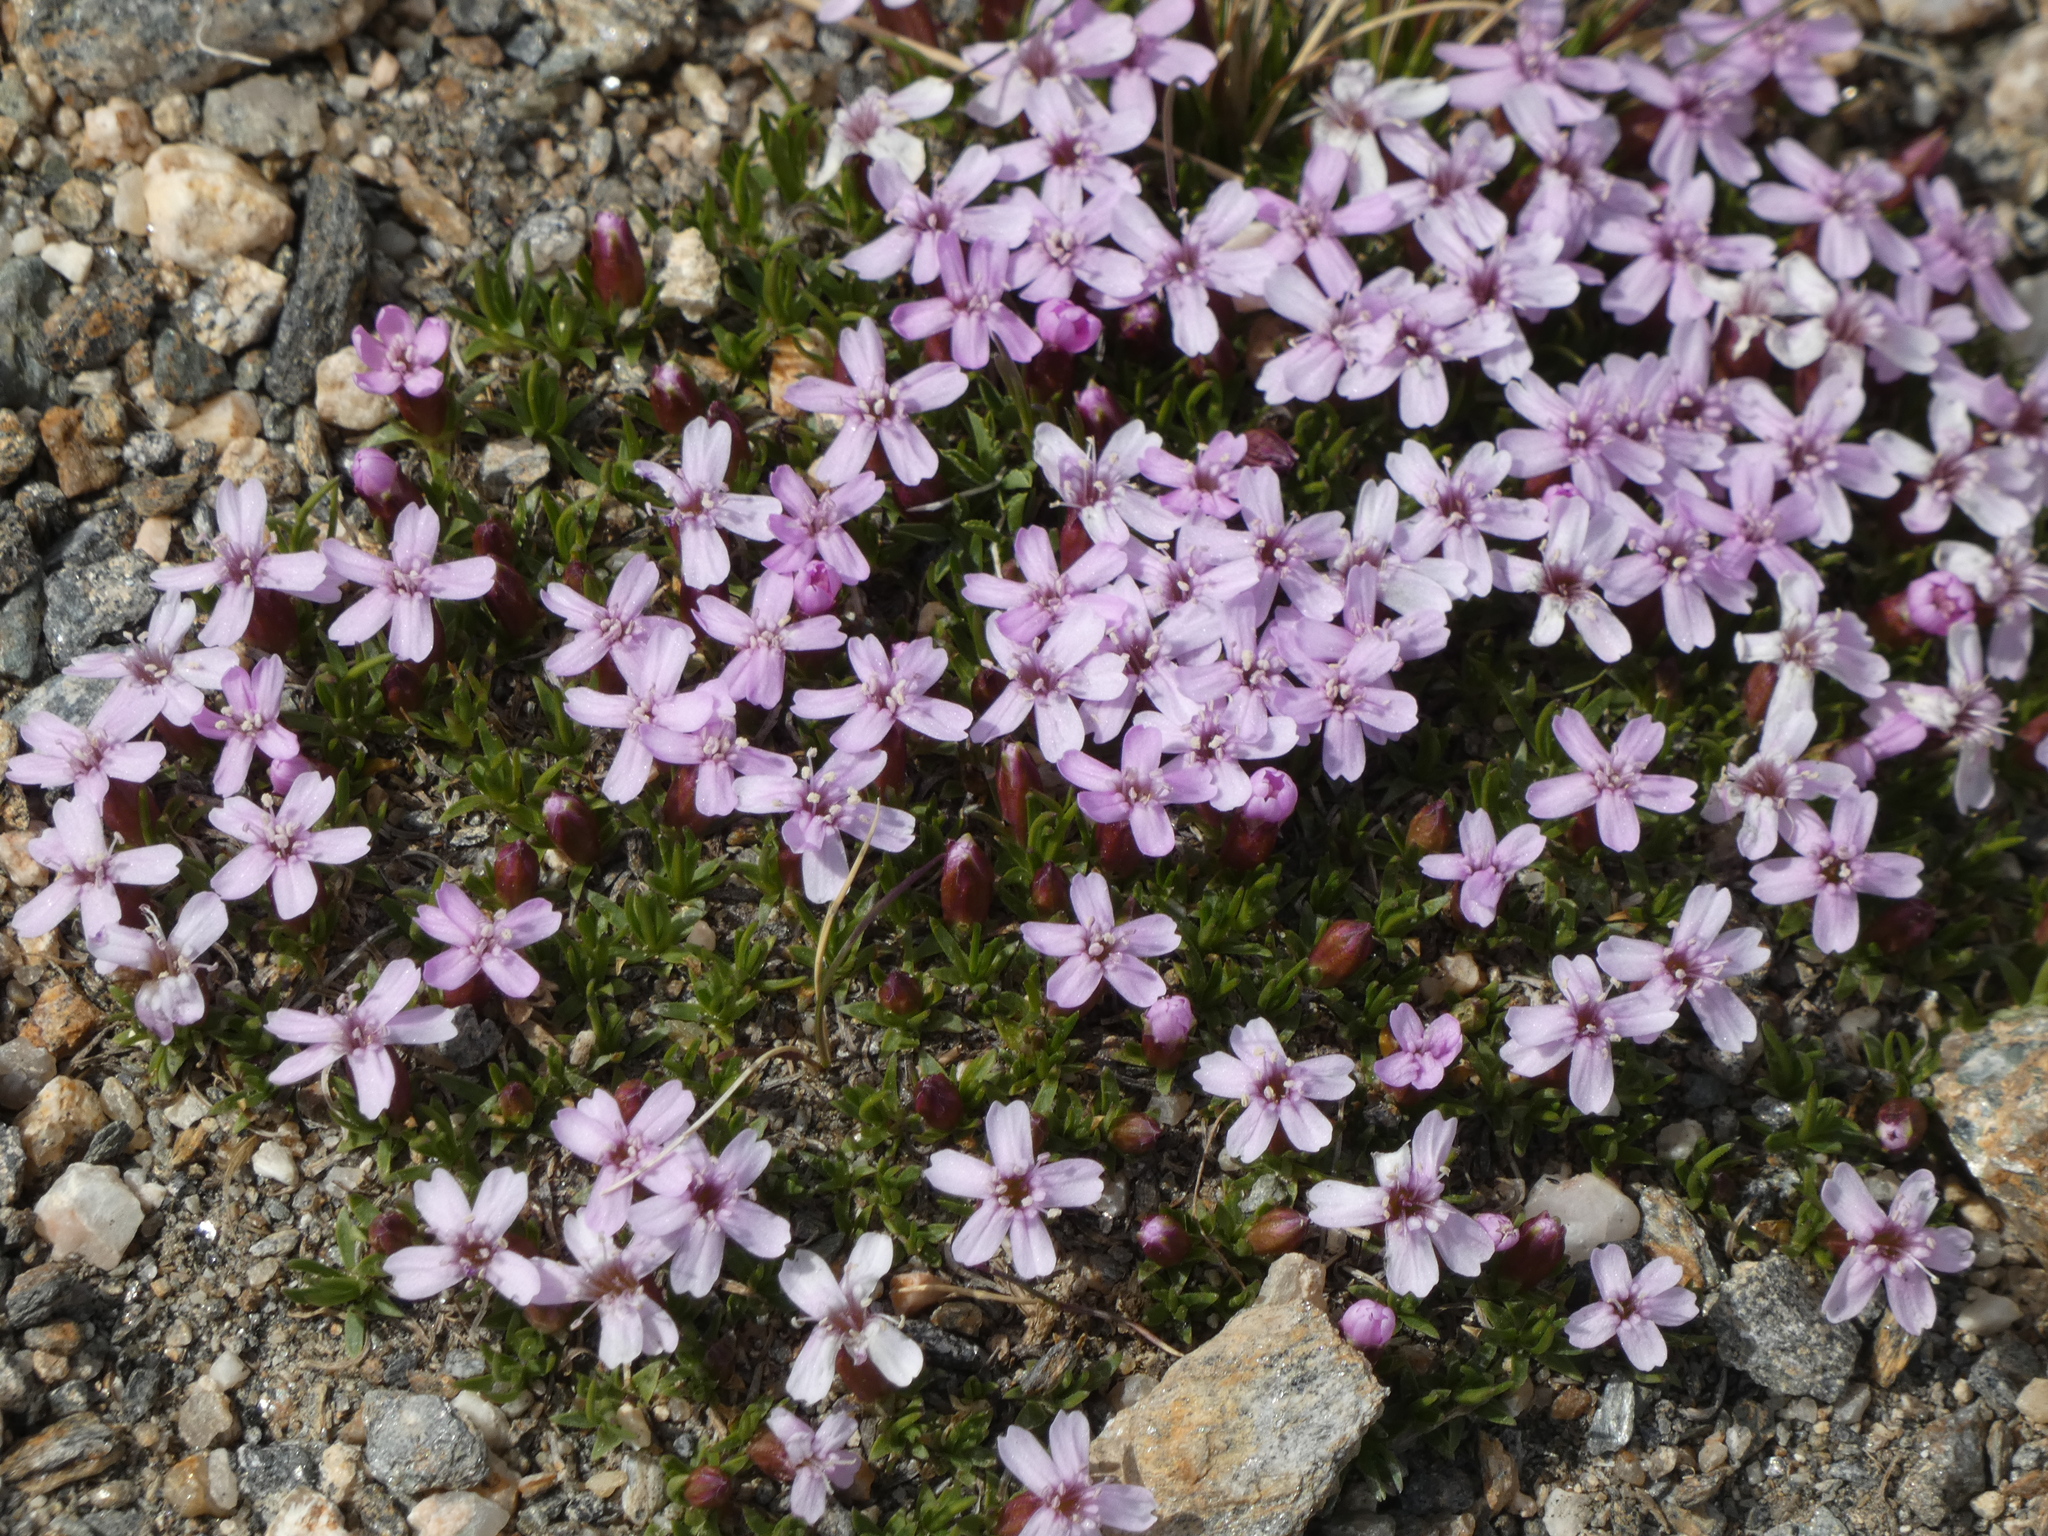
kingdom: Plantae
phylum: Tracheophyta
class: Magnoliopsida
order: Caryophyllales
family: Caryophyllaceae
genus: Silene
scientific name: Silene acaulis
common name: Moss campion
